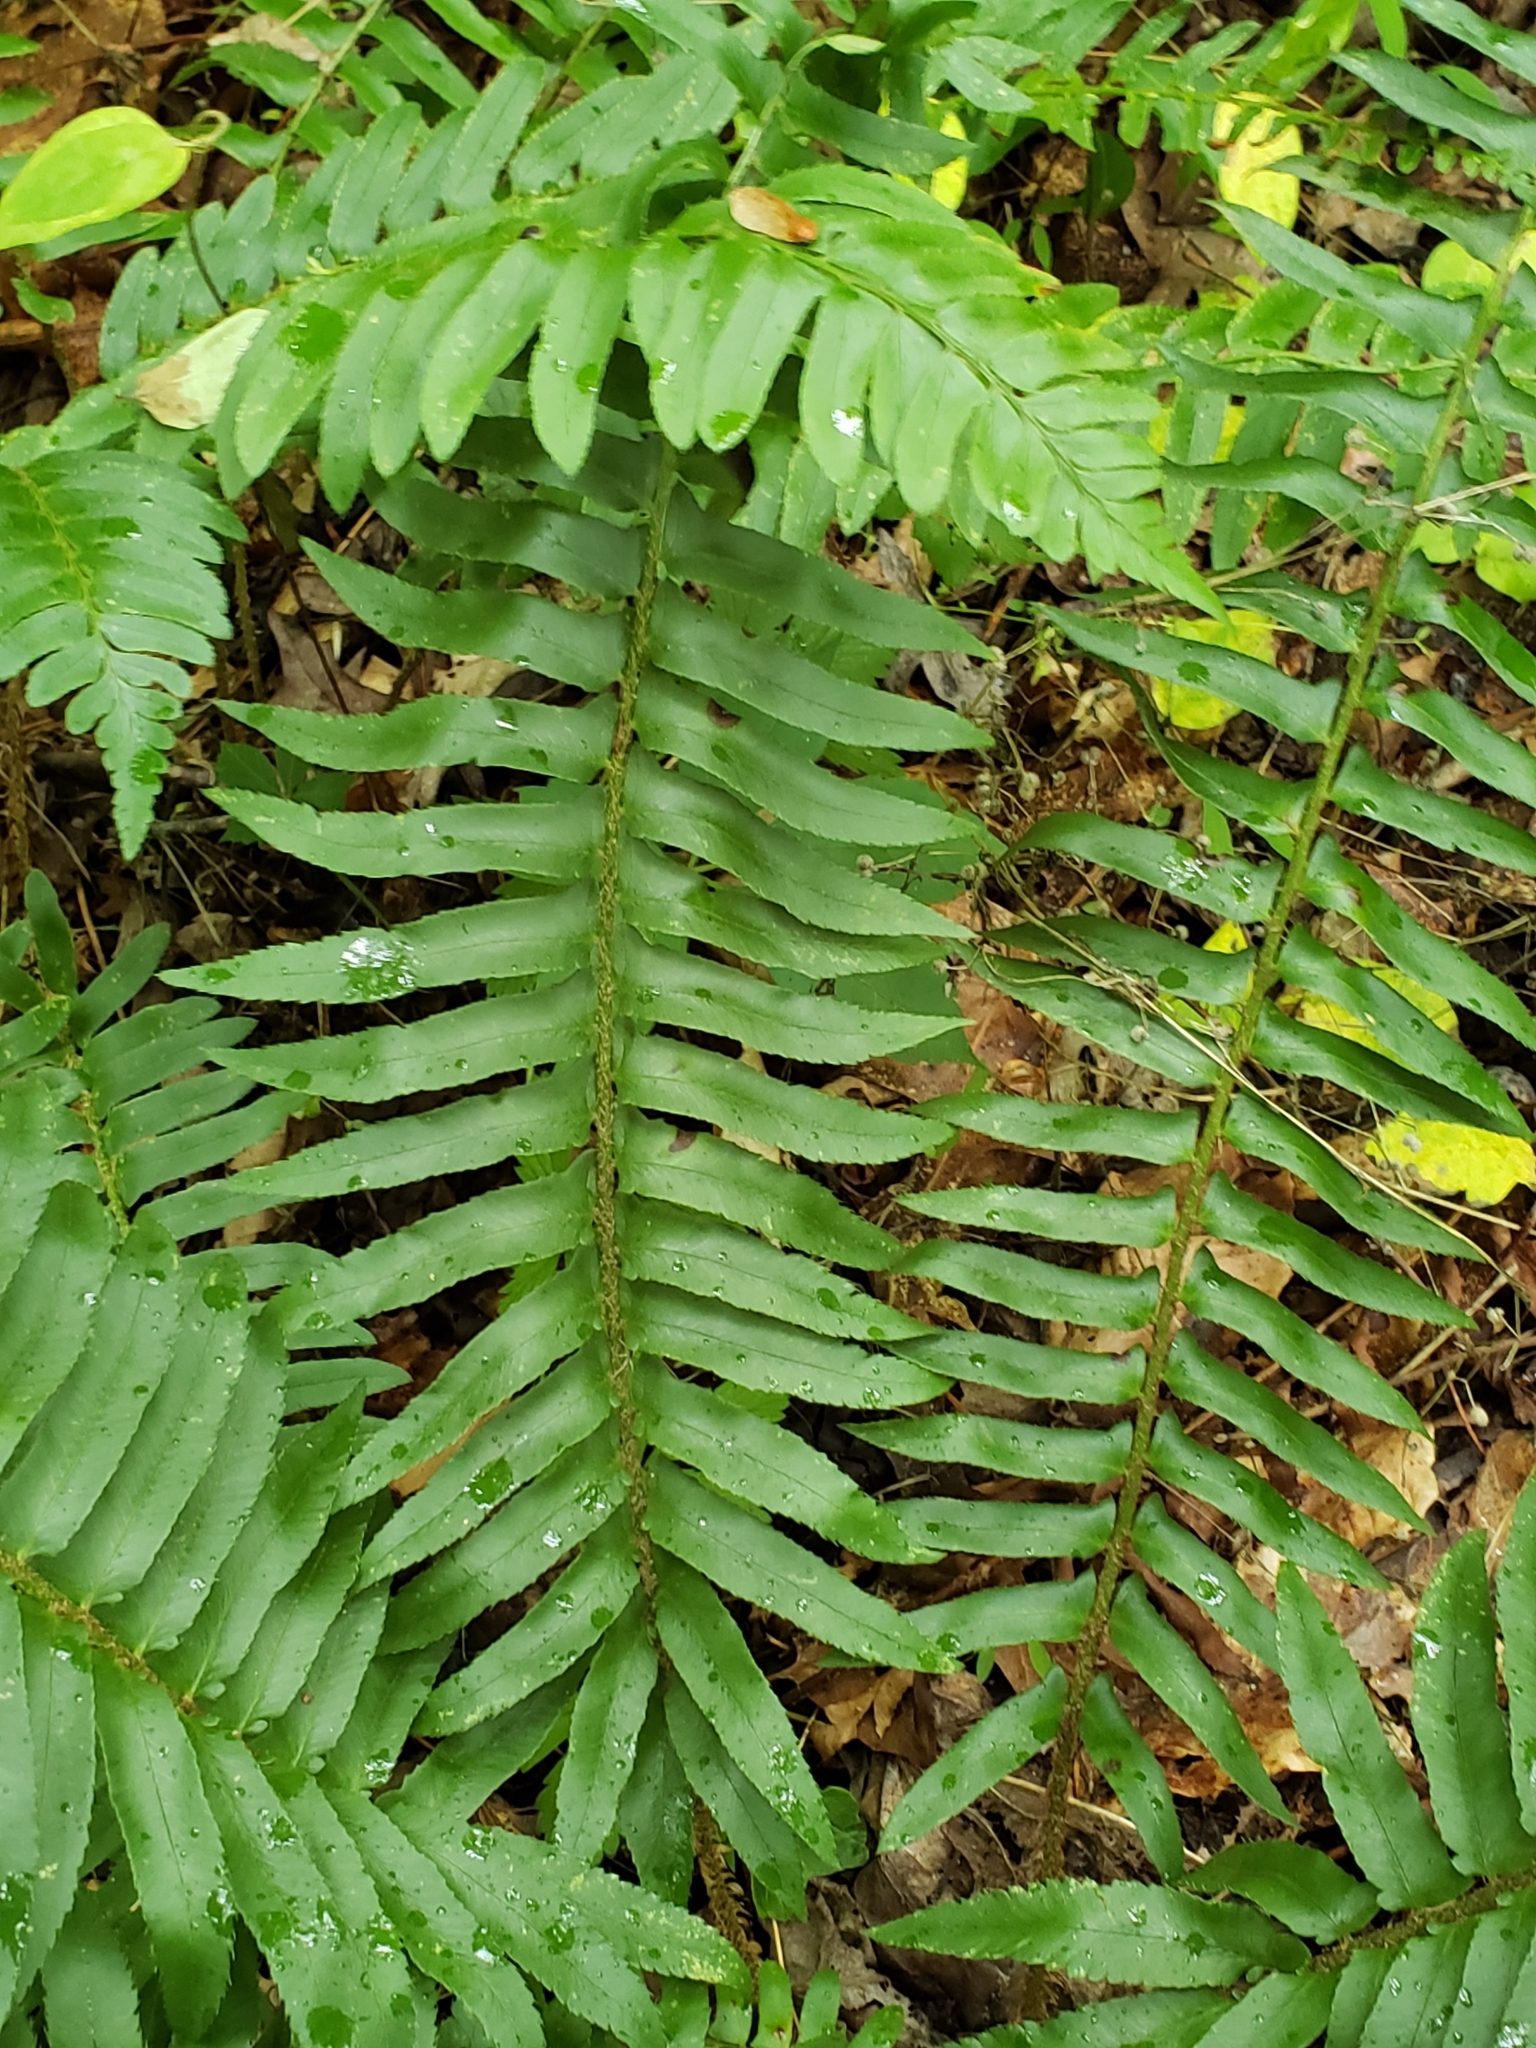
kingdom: Plantae
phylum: Tracheophyta
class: Polypodiopsida
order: Polypodiales
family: Dryopteridaceae
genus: Polystichum
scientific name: Polystichum acrostichoides
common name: Christmas fern
